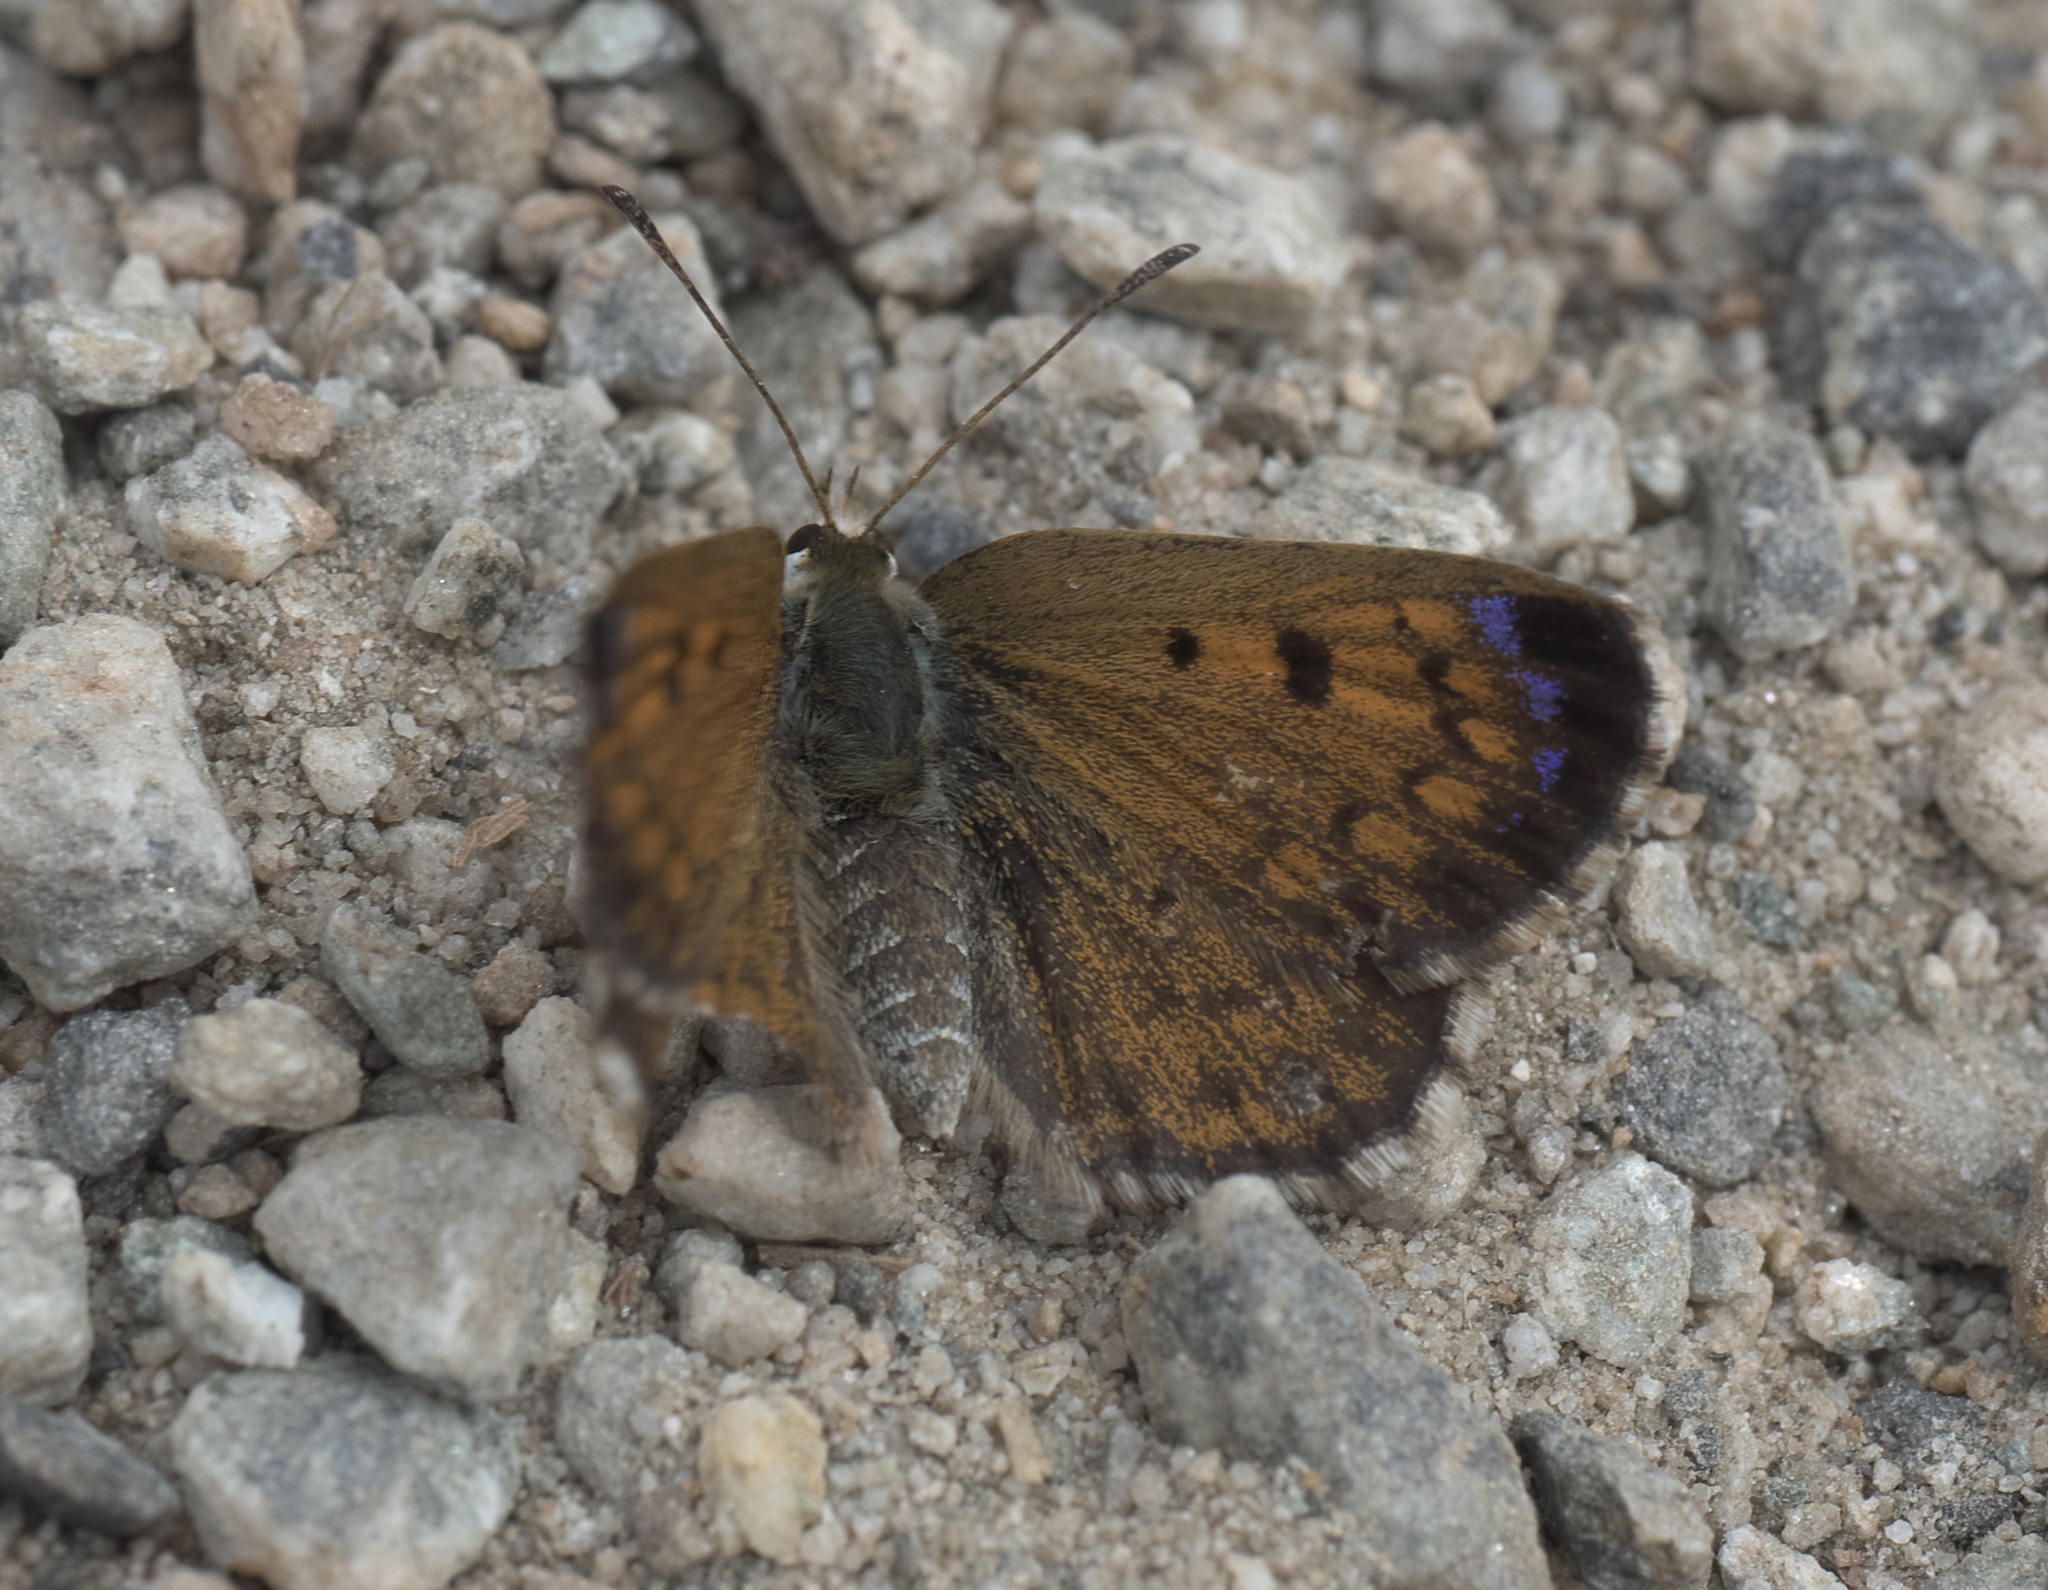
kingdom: Animalia
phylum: Arthropoda
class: Insecta
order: Lepidoptera
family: Lycaenidae
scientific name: Lycaenidae
